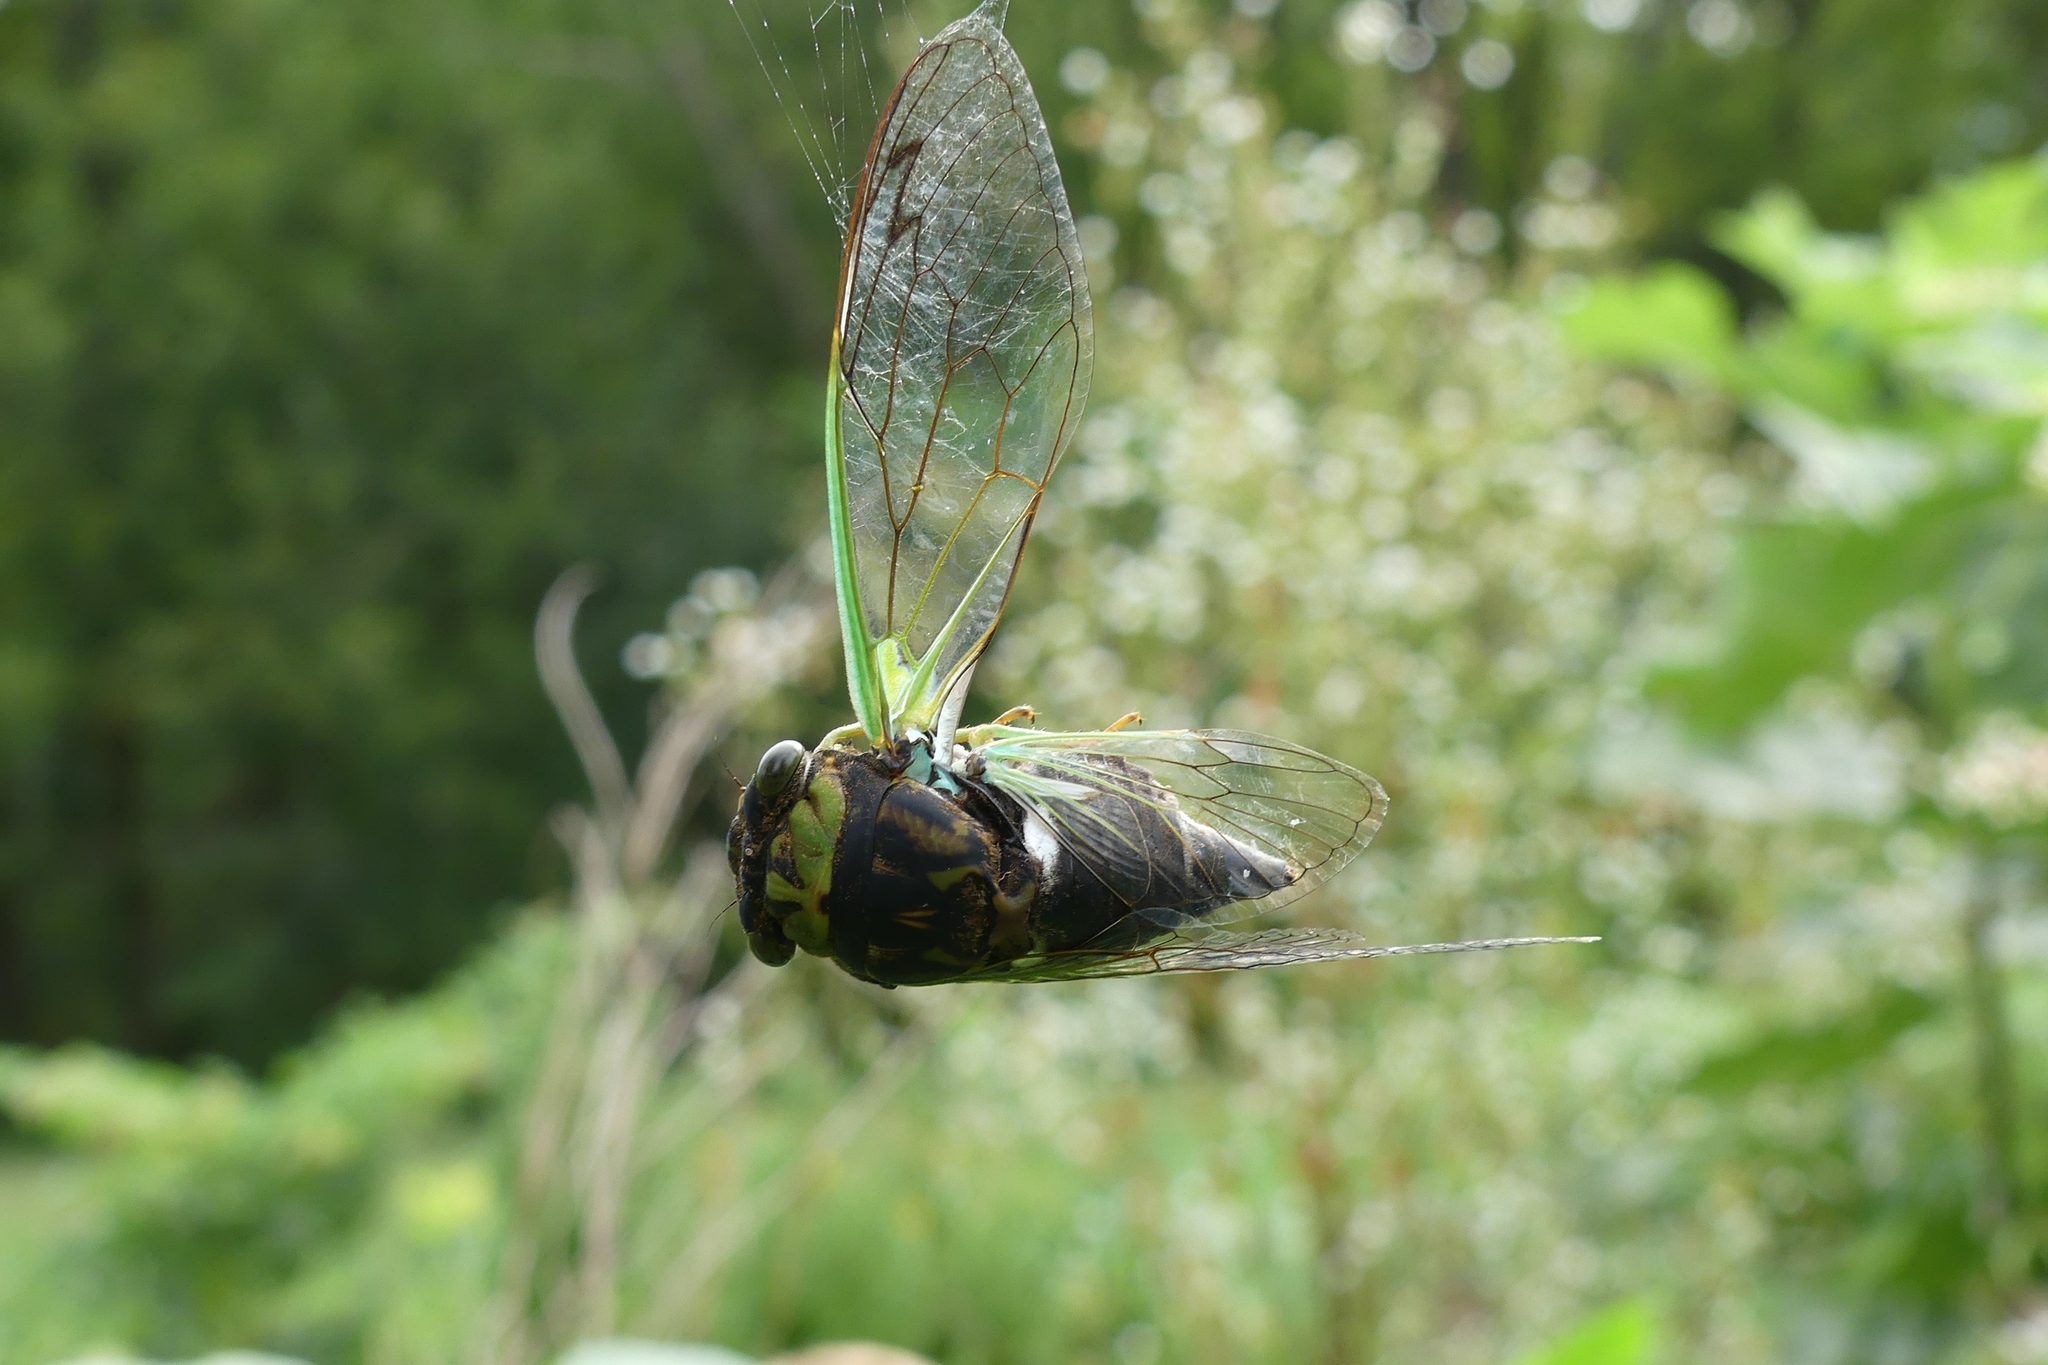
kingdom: Animalia
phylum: Arthropoda
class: Insecta
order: Hemiptera
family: Cicadidae
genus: Neotibicen
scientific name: Neotibicen tibicen
